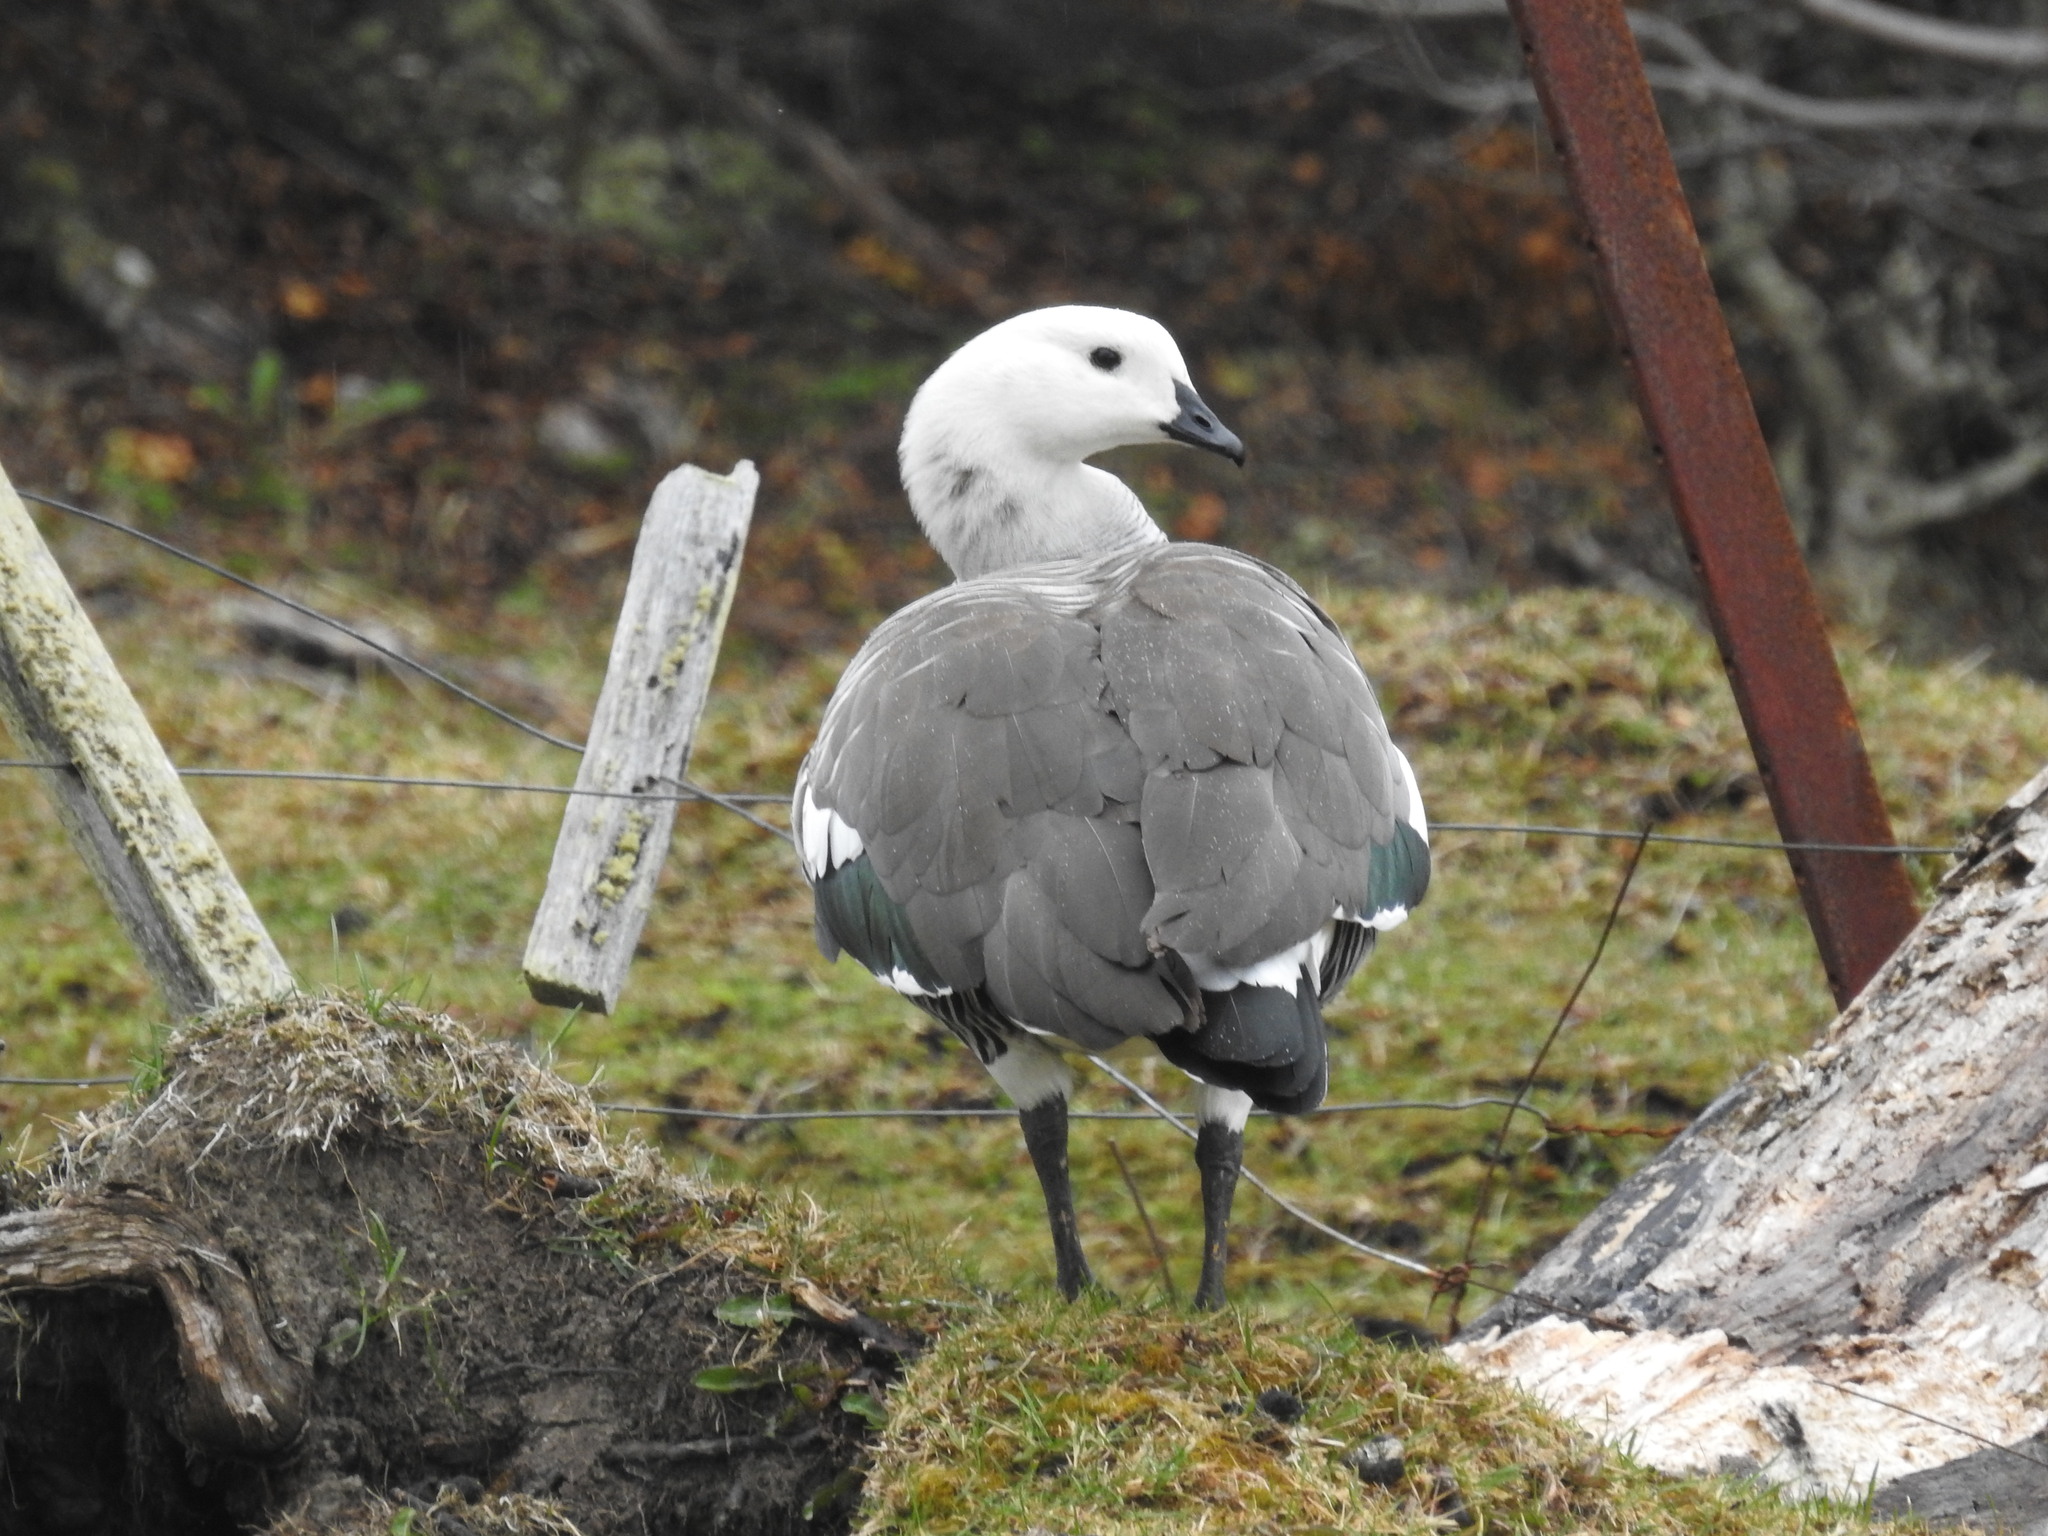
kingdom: Animalia
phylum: Chordata
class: Aves
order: Anseriformes
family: Anatidae
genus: Chloephaga
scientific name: Chloephaga picta
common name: Upland goose
